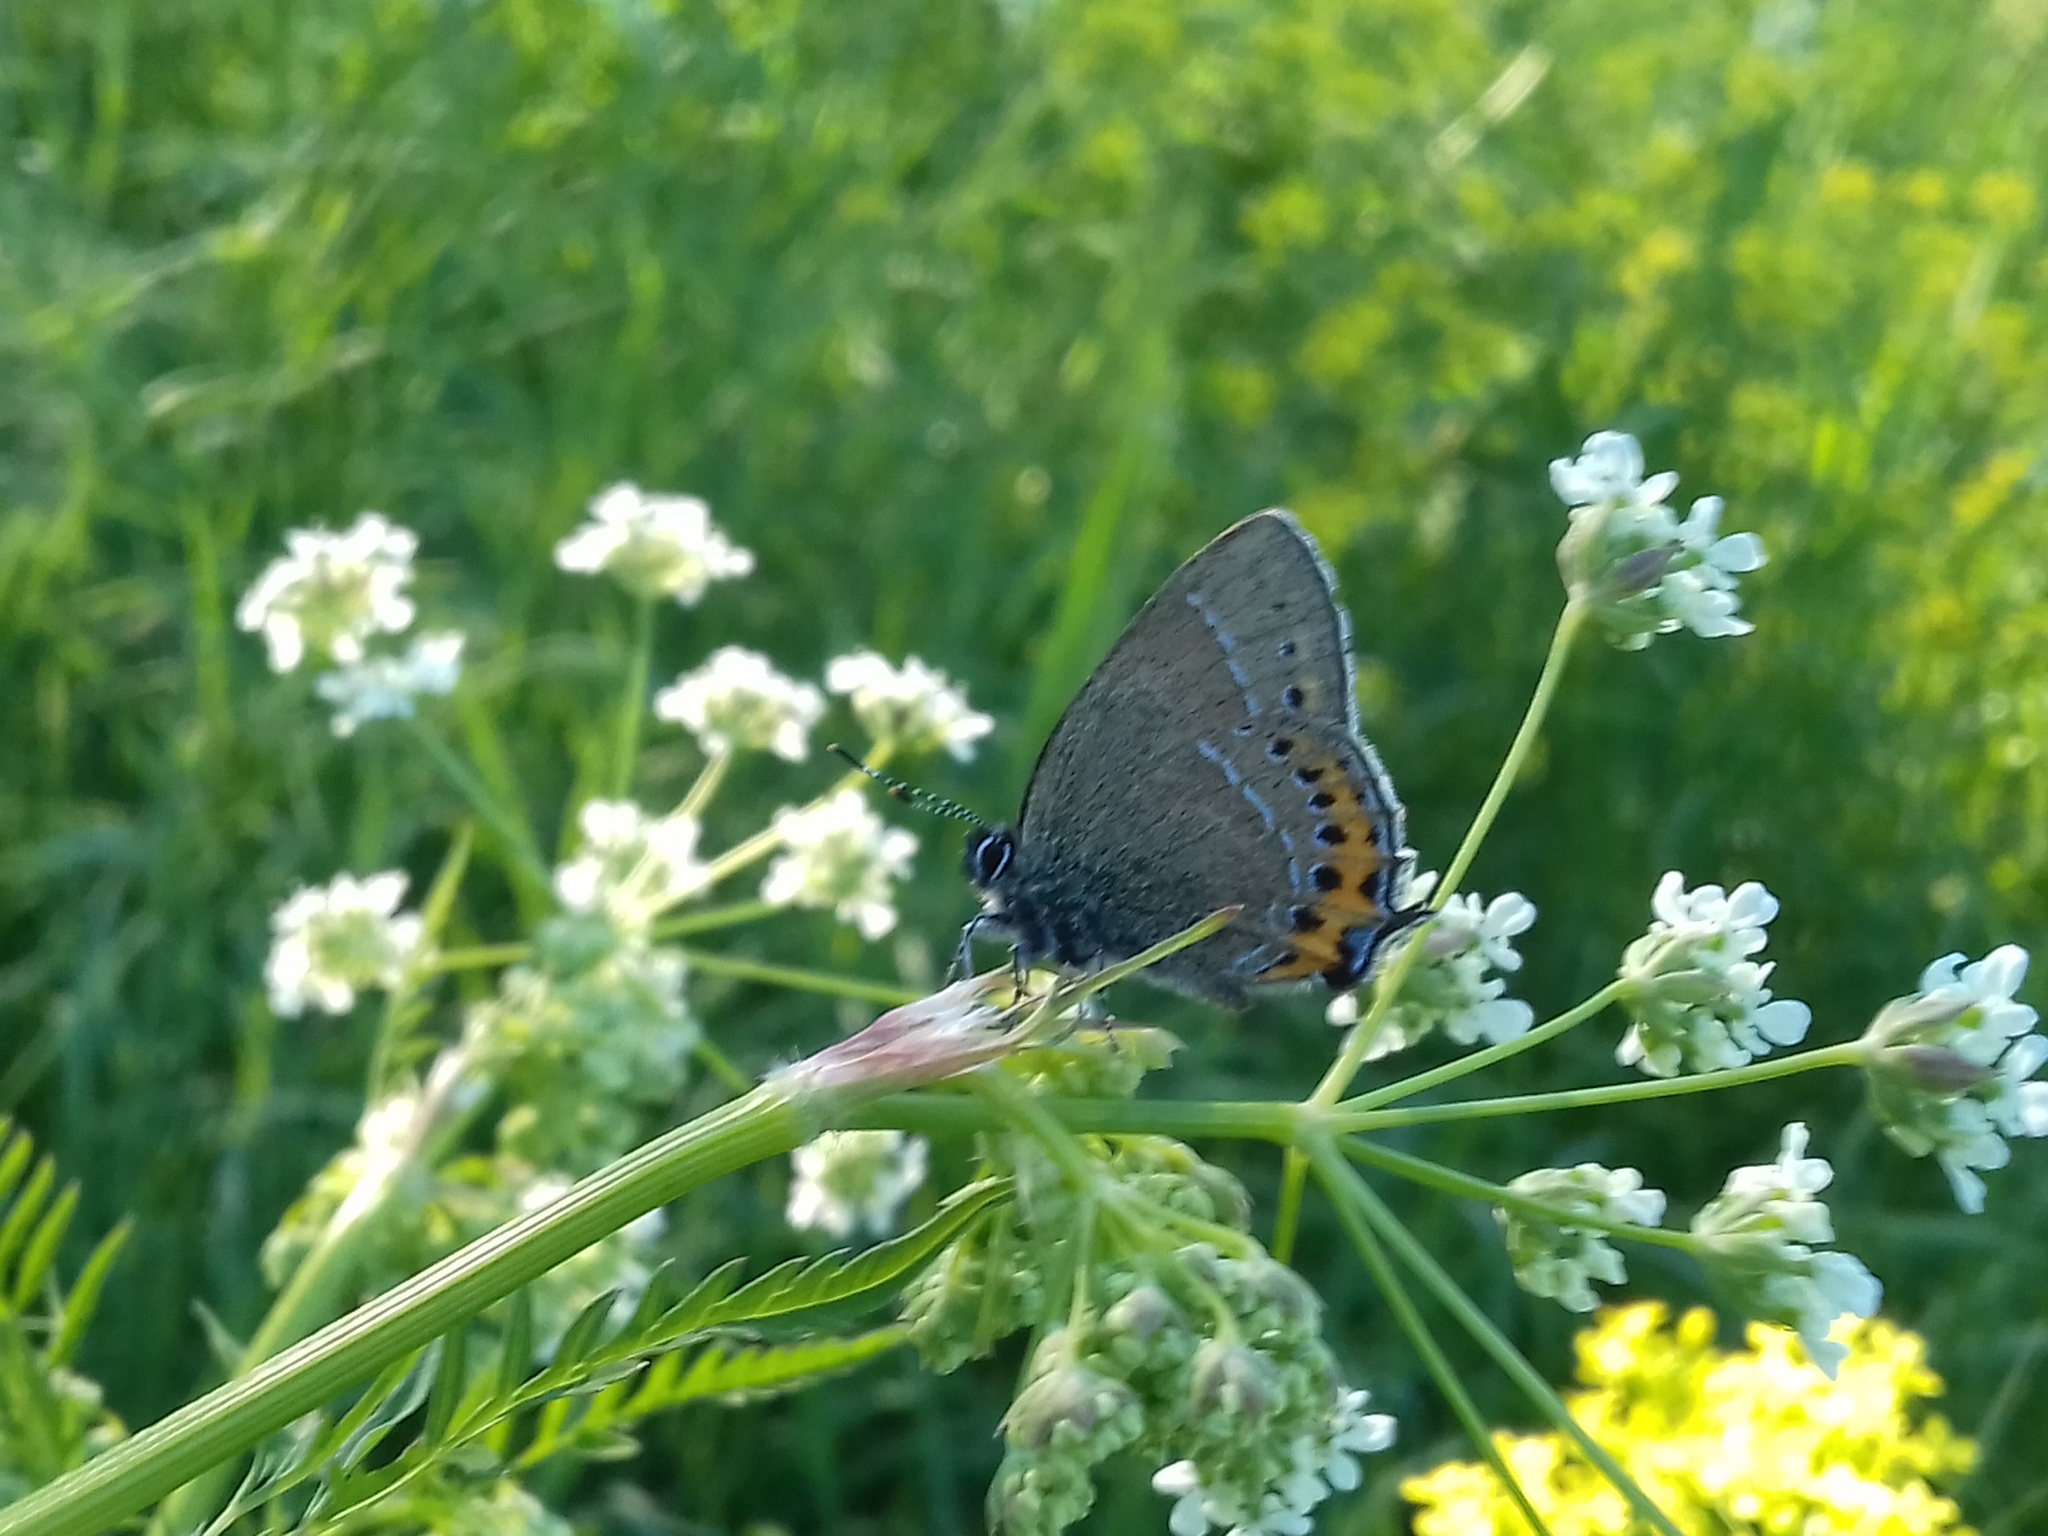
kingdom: Animalia
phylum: Arthropoda
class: Insecta
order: Lepidoptera
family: Lycaenidae
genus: Fixsenia
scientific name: Fixsenia pruni
